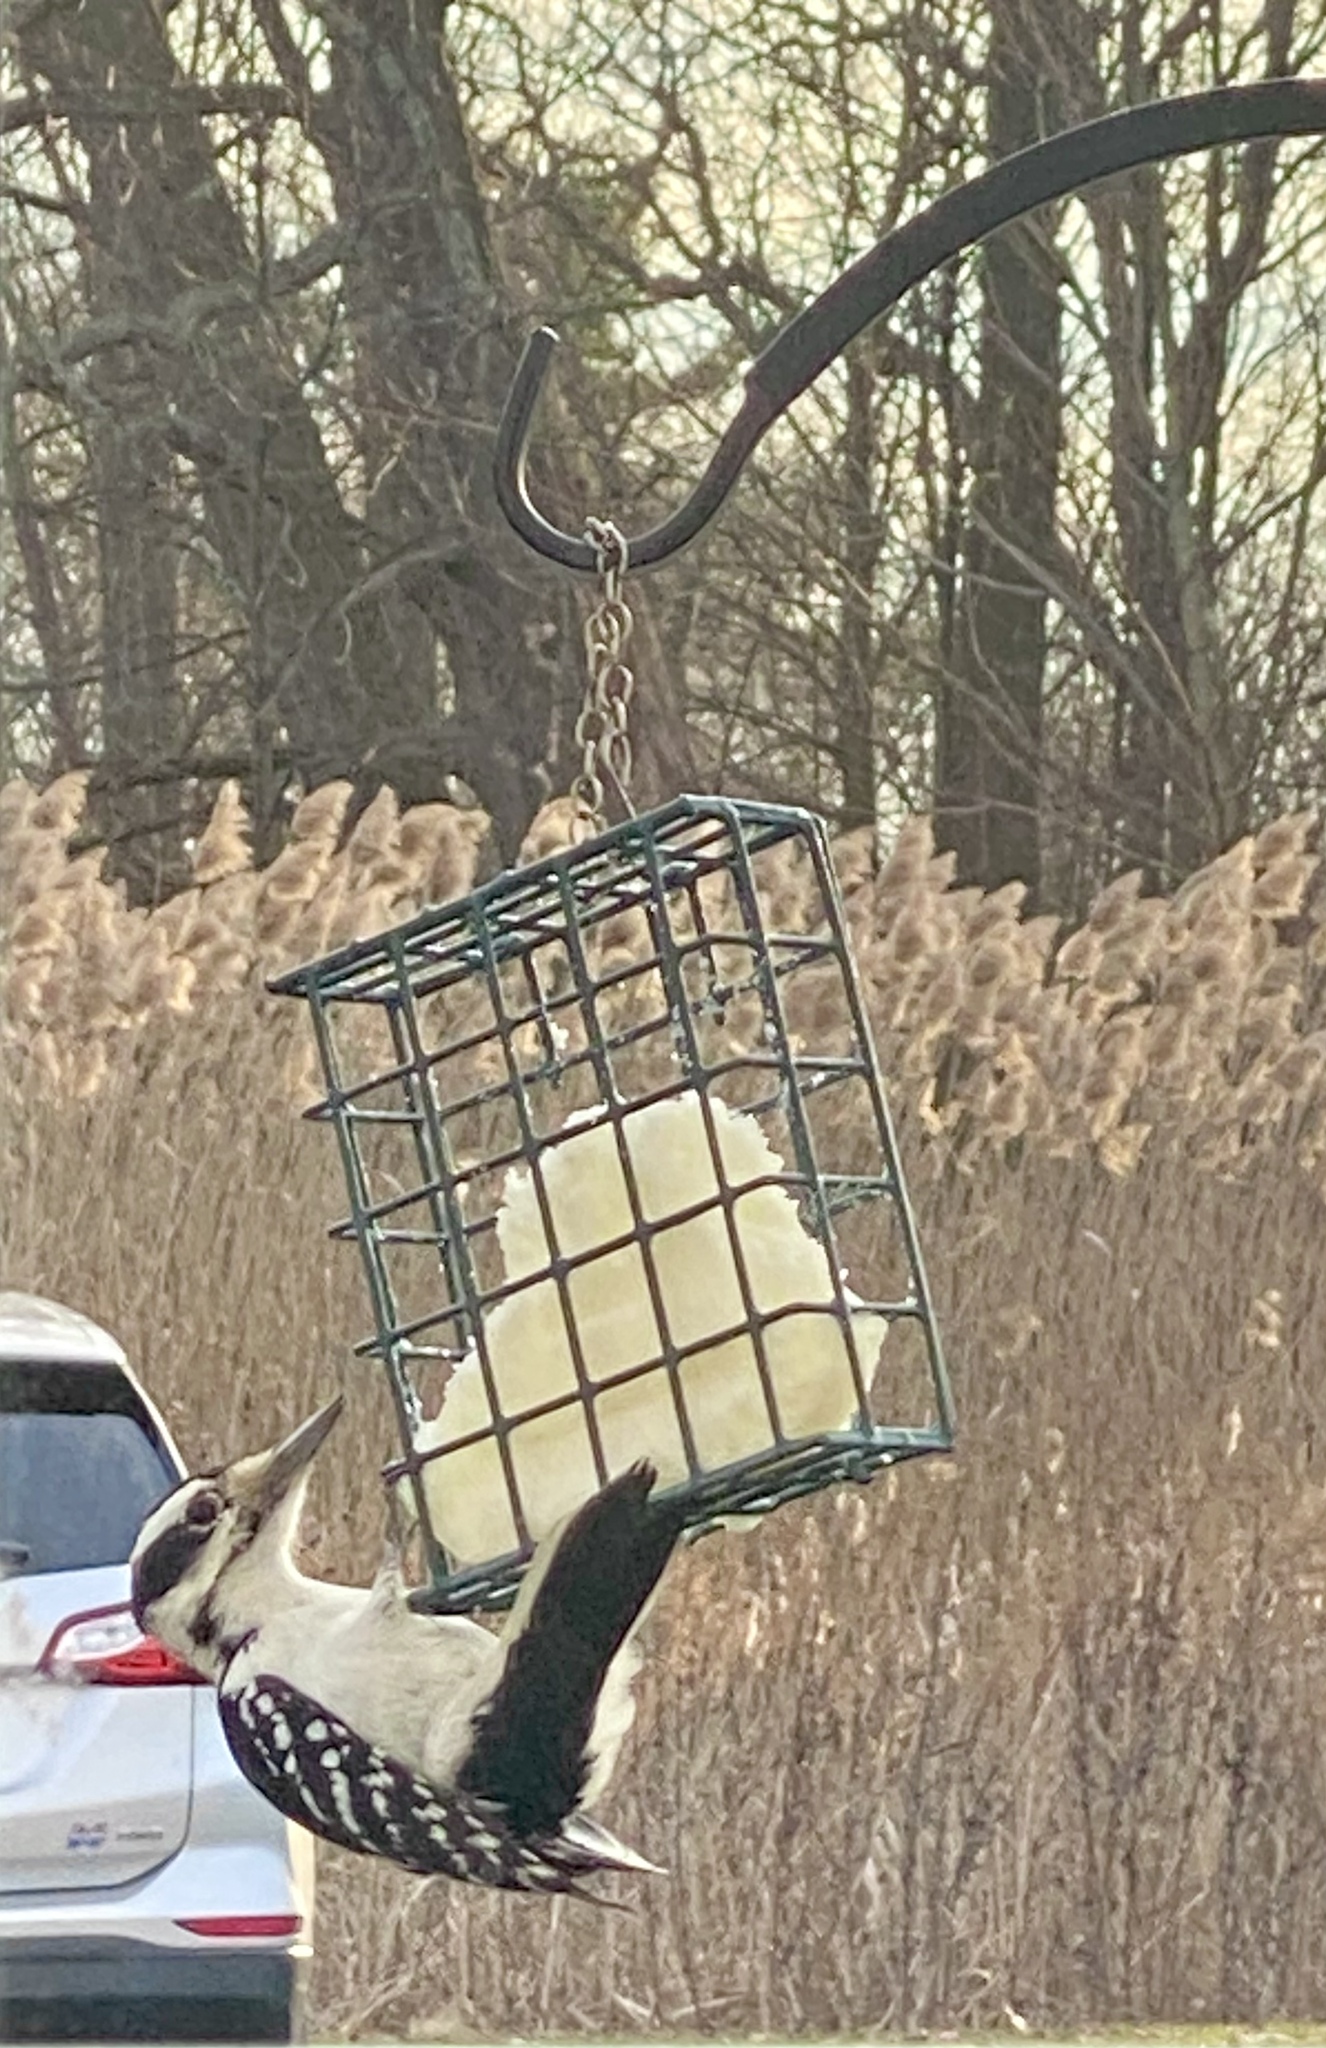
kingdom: Animalia
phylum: Chordata
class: Aves
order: Piciformes
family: Picidae
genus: Leuconotopicus
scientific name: Leuconotopicus villosus
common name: Hairy woodpecker
